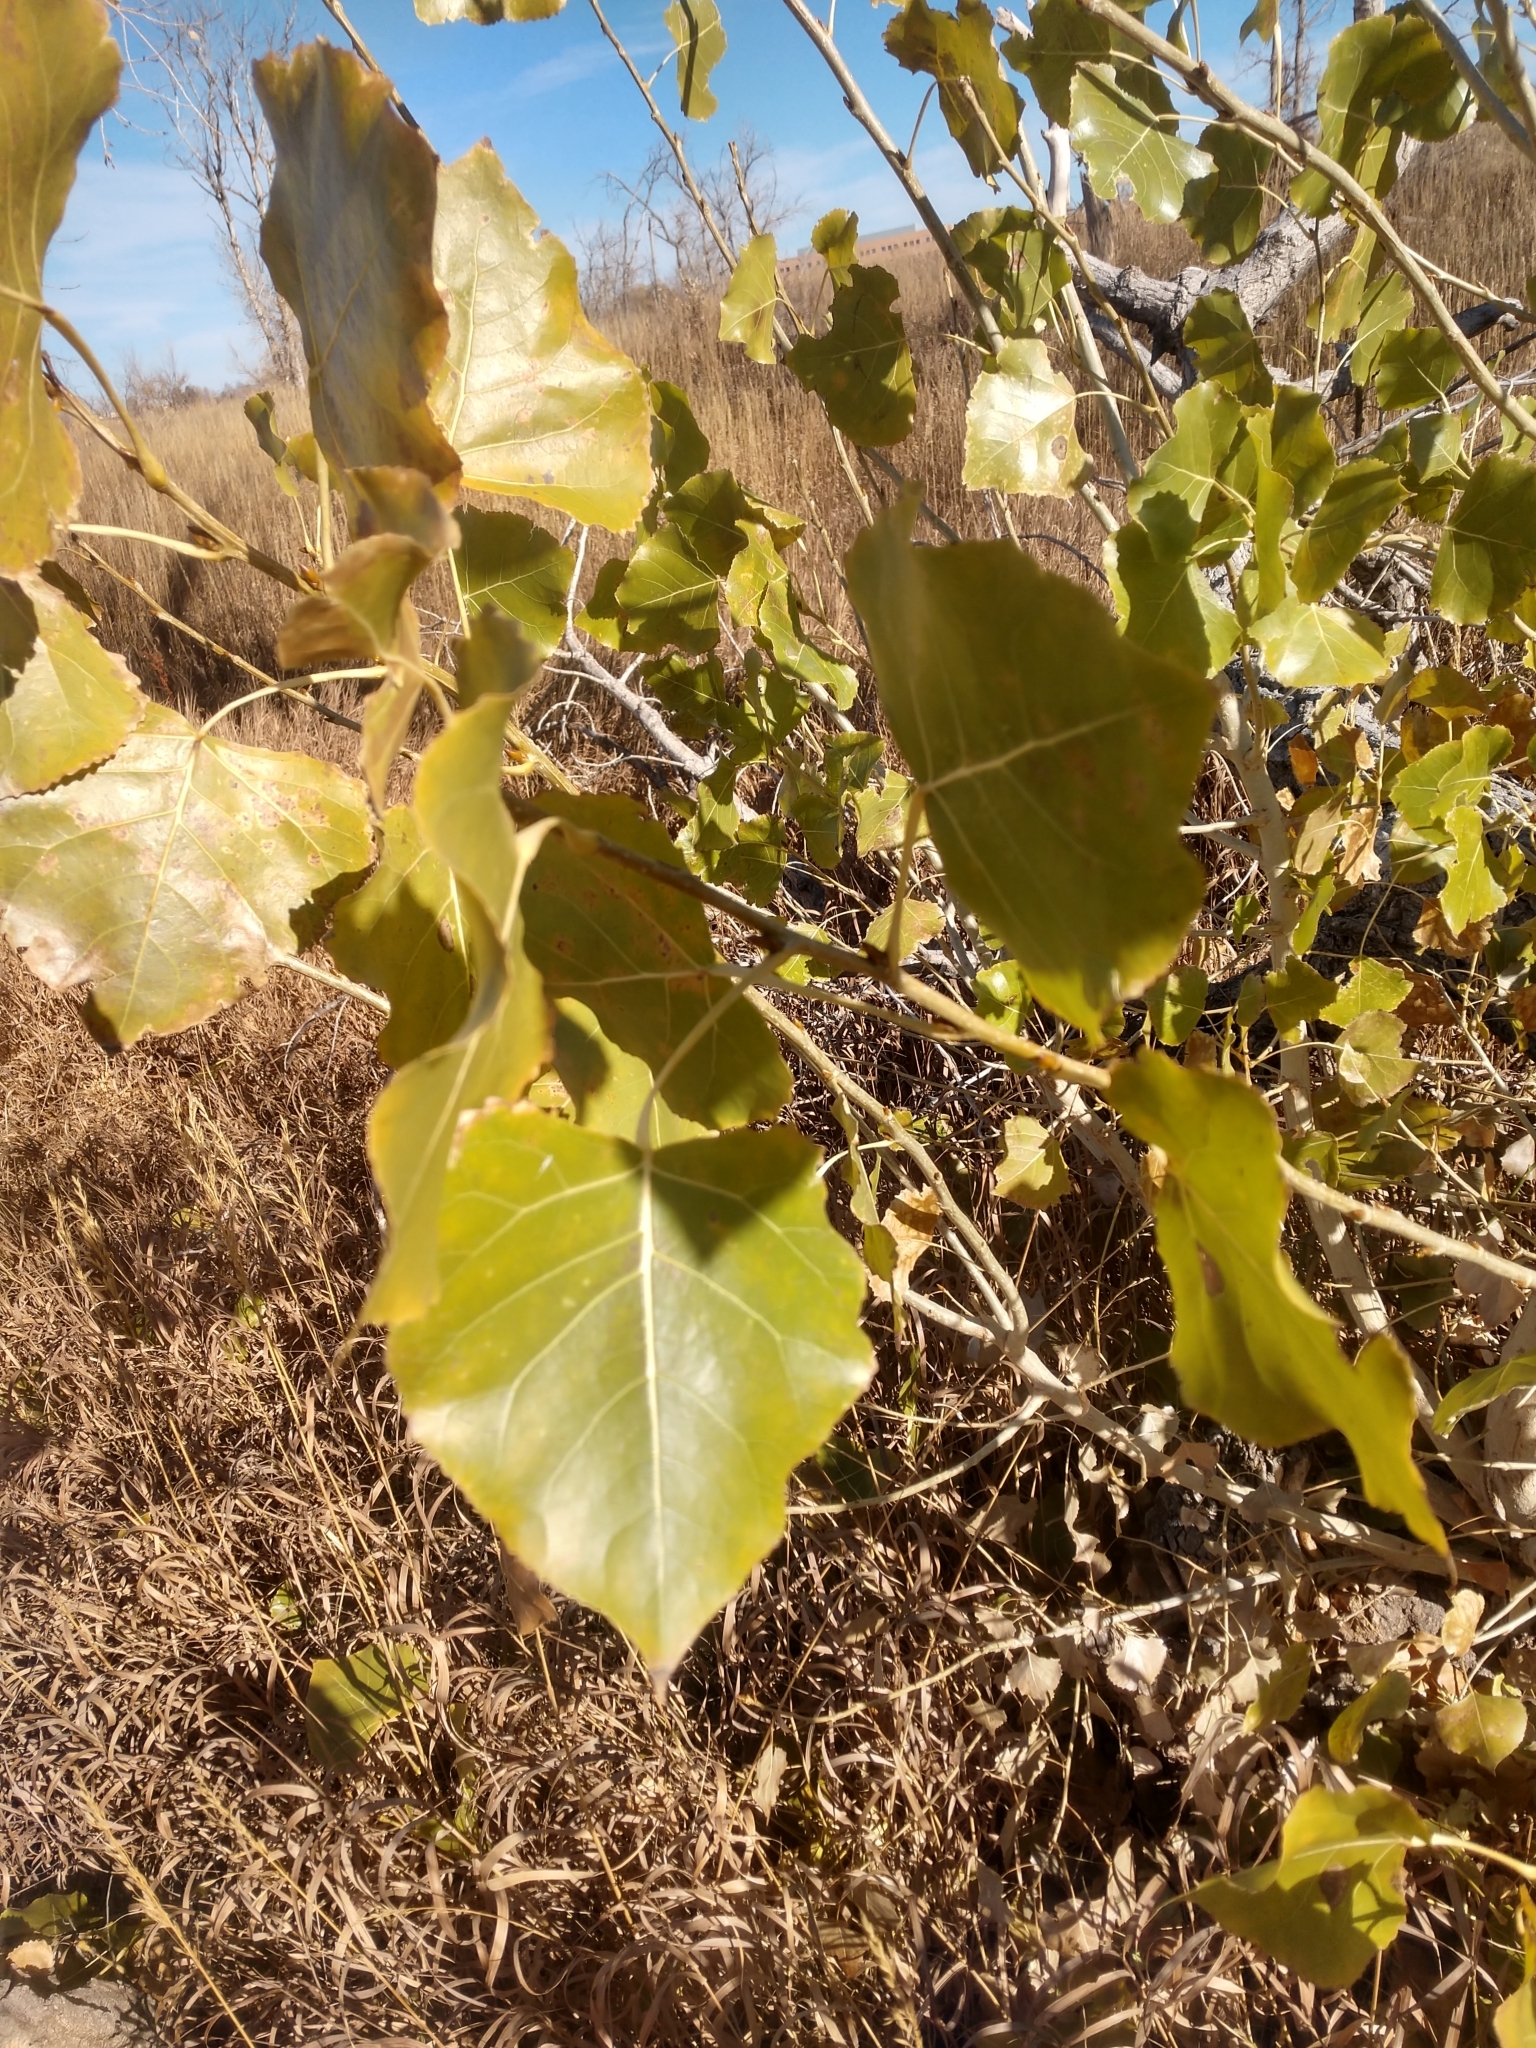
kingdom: Plantae
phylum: Tracheophyta
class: Magnoliopsida
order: Malpighiales
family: Salicaceae
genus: Populus
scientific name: Populus deltoides
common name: Eastern cottonwood
